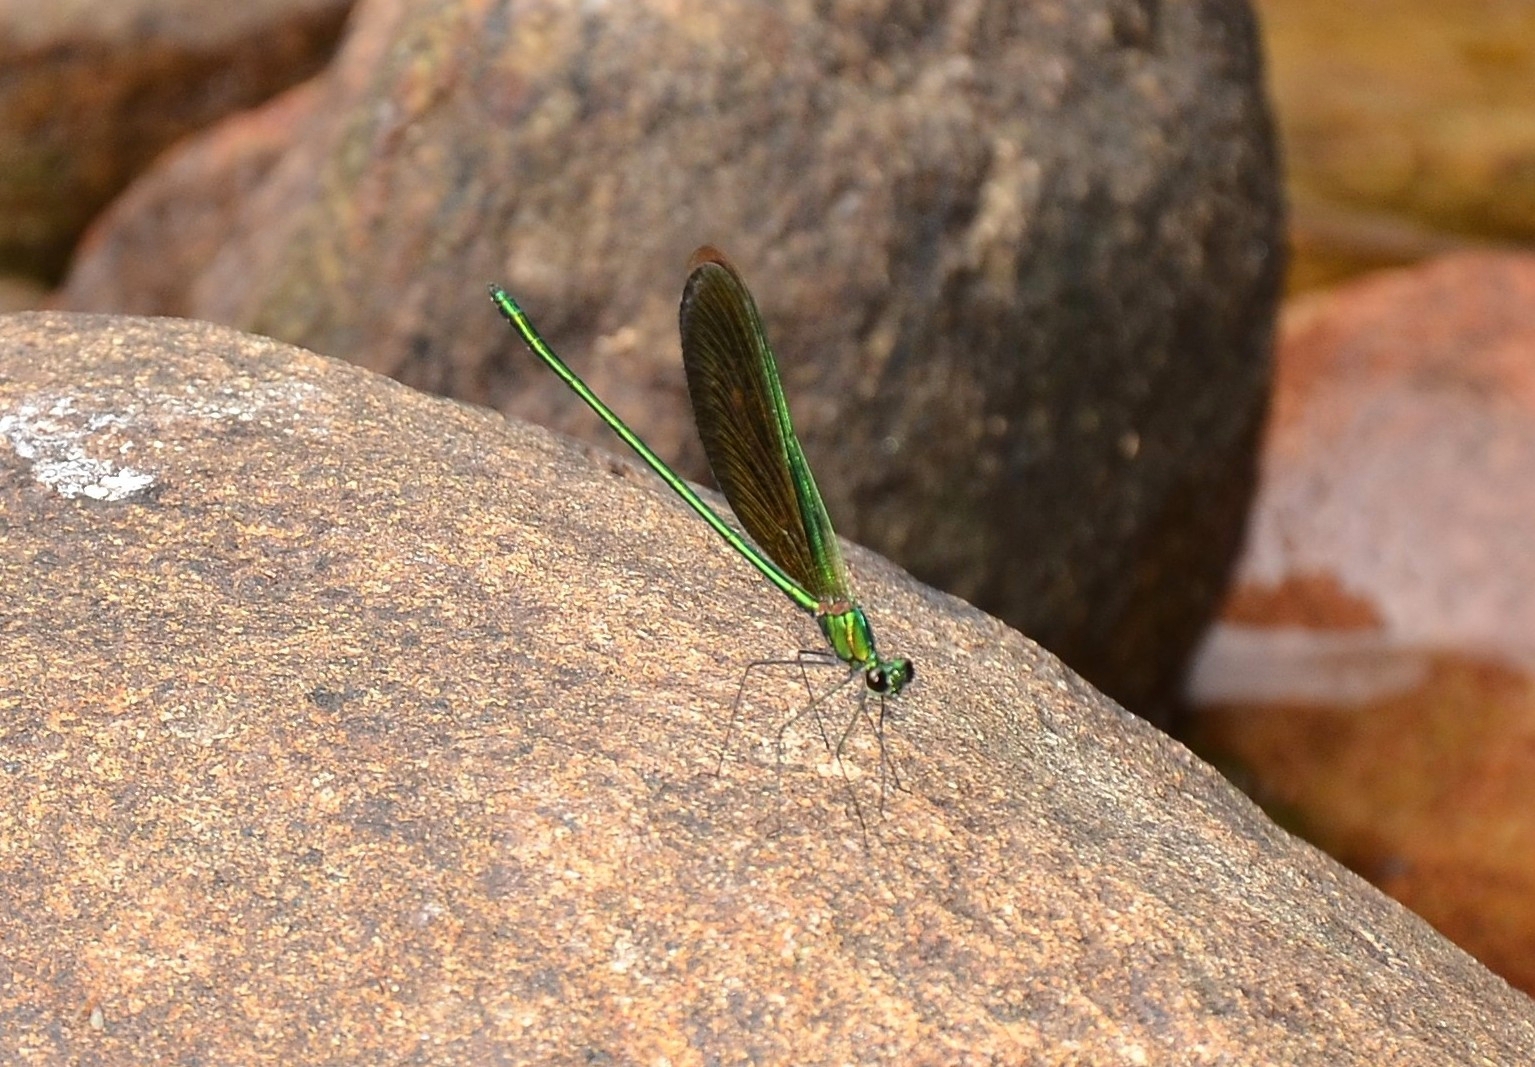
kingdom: Animalia
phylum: Arthropoda
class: Insecta
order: Odonata
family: Calopterygidae
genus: Neurobasis
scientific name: Neurobasis chinensis
